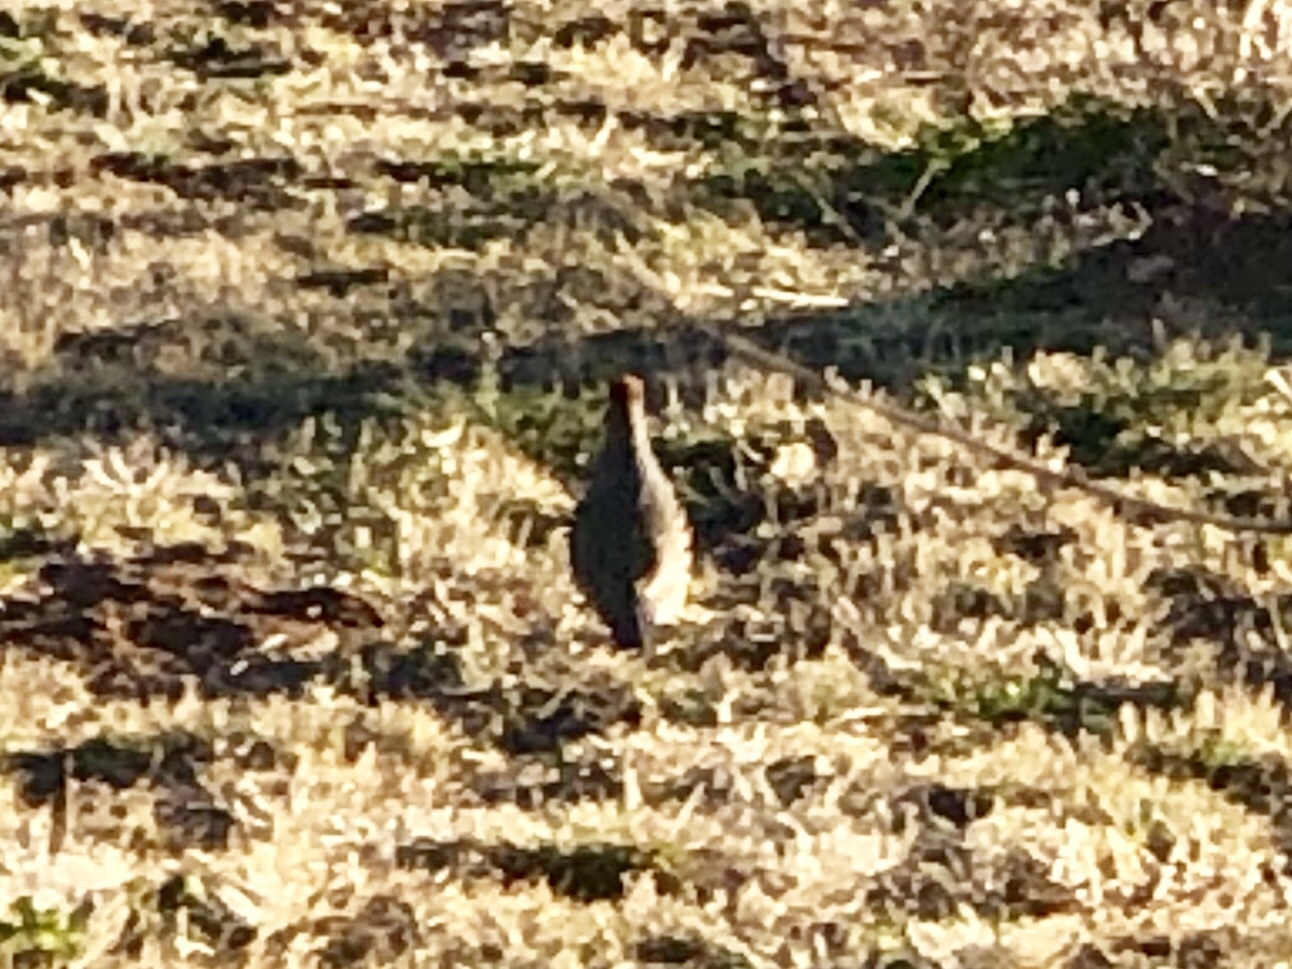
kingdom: Animalia
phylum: Chordata
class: Aves
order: Galliformes
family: Odontophoridae
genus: Callipepla
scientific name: Callipepla gambelii
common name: Gambel's quail
